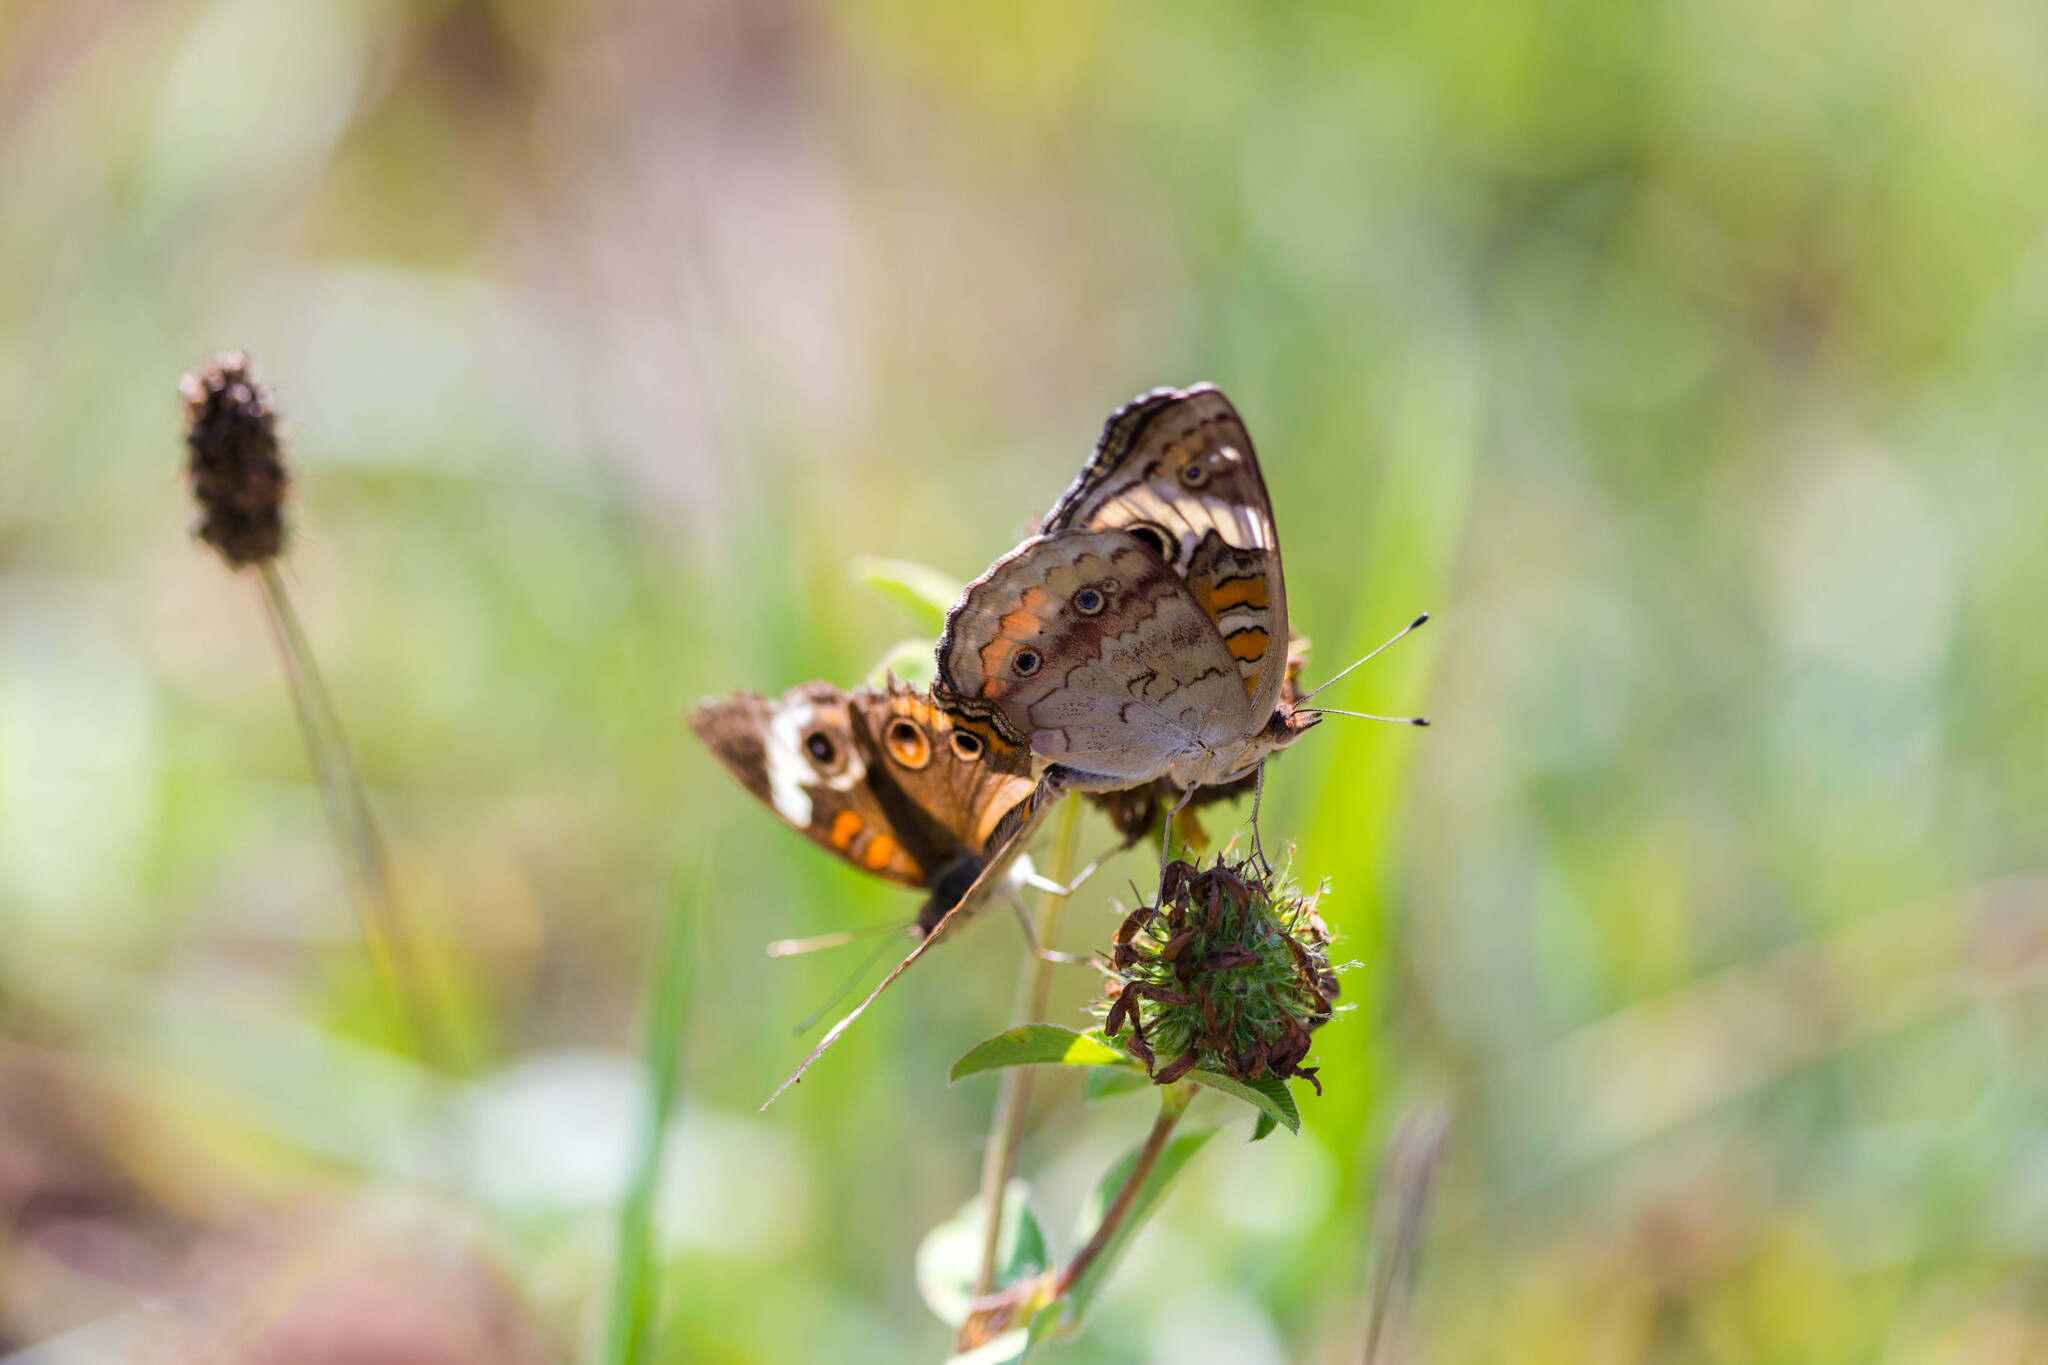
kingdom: Animalia
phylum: Arthropoda
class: Insecta
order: Lepidoptera
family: Nymphalidae
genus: Junonia
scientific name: Junonia coenia
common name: Common buckeye
